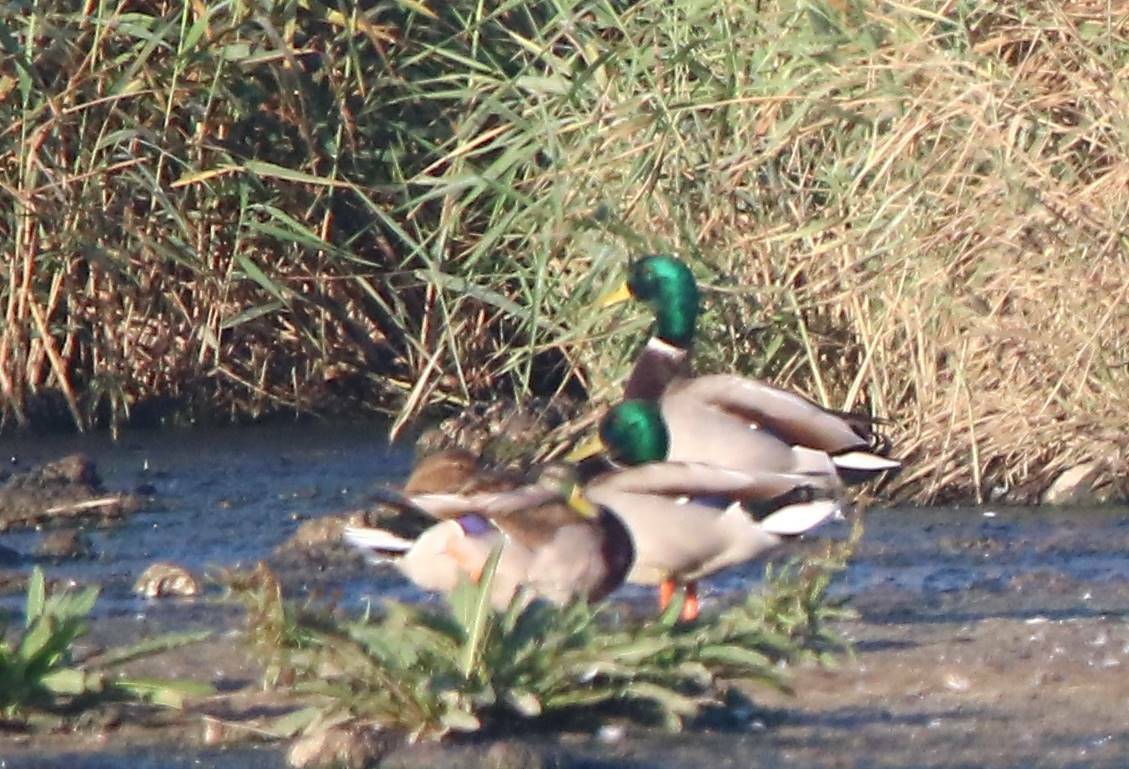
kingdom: Animalia
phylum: Chordata
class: Aves
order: Anseriformes
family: Anatidae
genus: Anas
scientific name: Anas platyrhynchos
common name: Mallard
